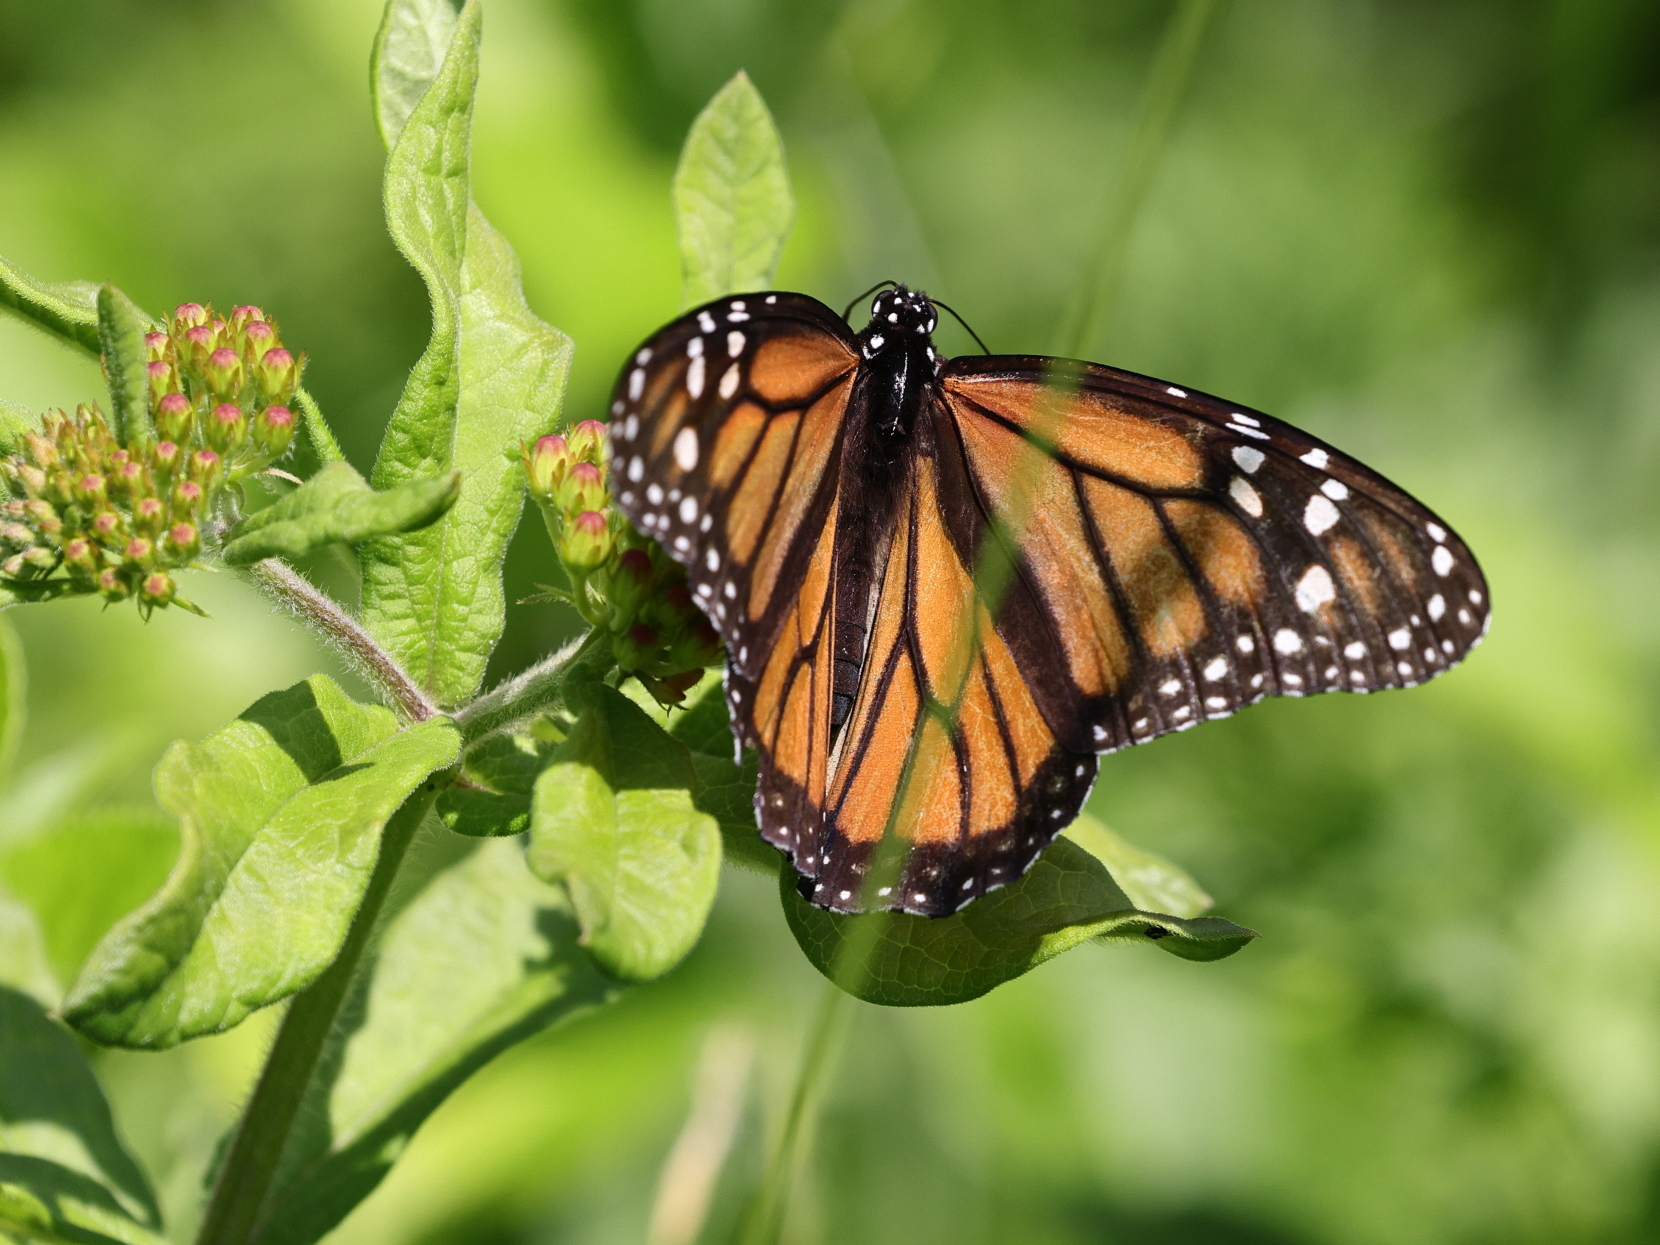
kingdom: Animalia
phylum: Arthropoda
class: Insecta
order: Lepidoptera
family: Nymphalidae
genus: Danaus
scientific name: Danaus plexippus
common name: Monarch
